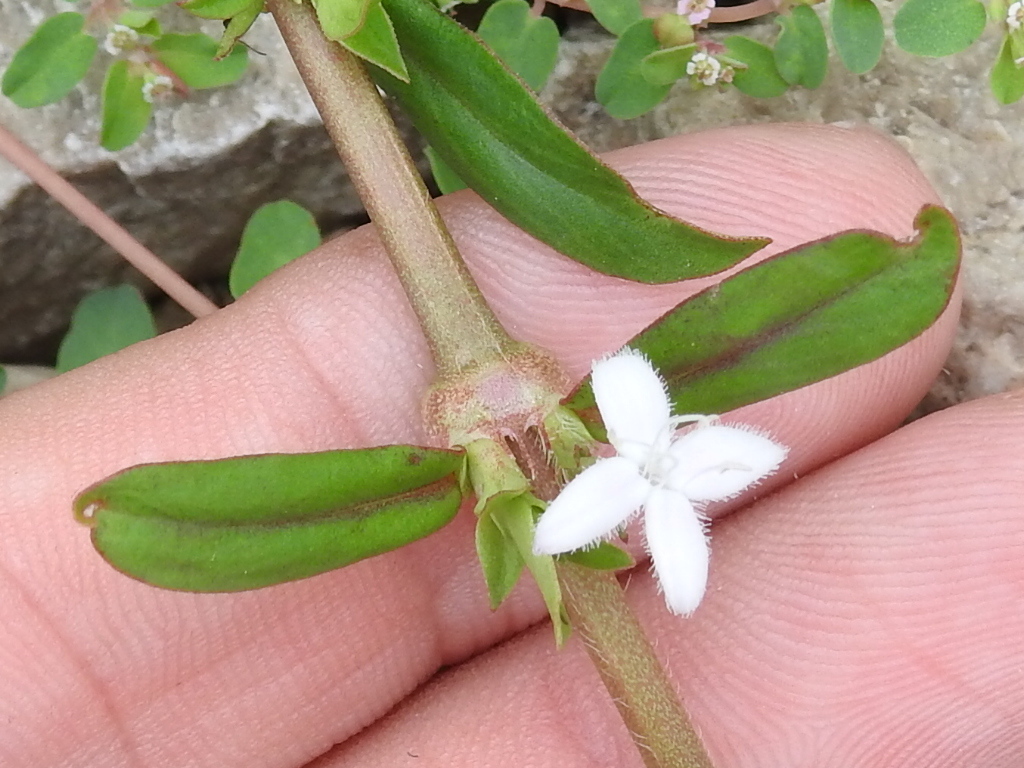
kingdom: Plantae
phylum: Tracheophyta
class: Magnoliopsida
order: Gentianales
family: Rubiaceae
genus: Diodia
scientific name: Diodia virginiana
